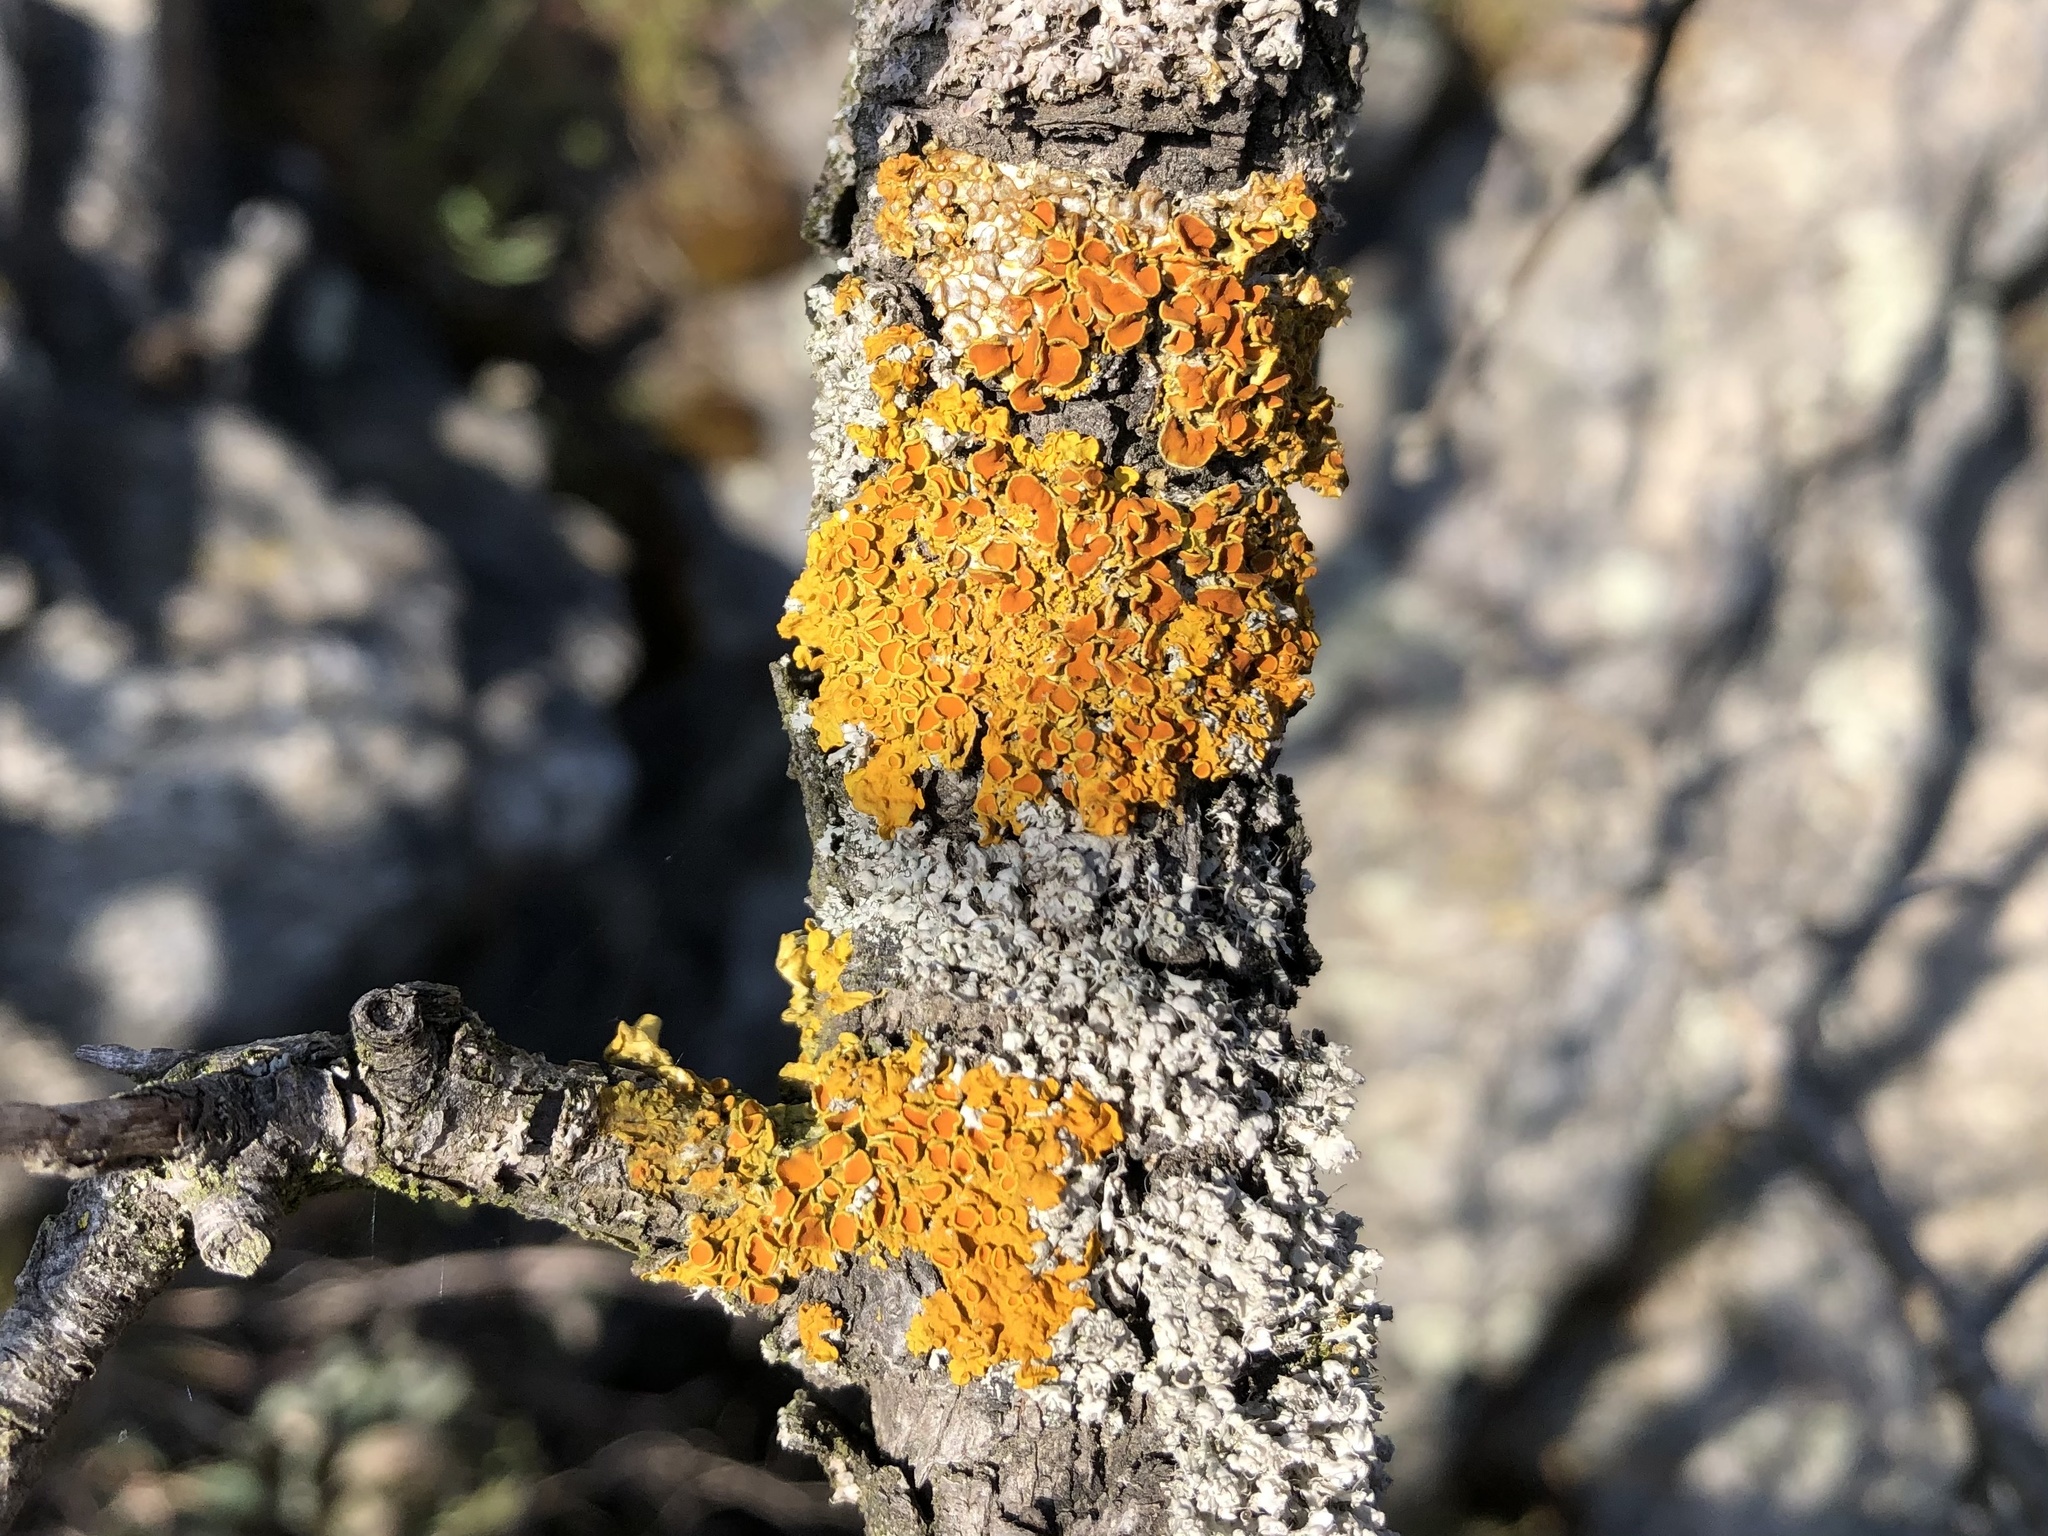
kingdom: Fungi
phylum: Ascomycota
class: Lecanoromycetes
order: Teloschistales
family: Teloschistaceae
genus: Xanthoria
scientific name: Xanthoria parietina
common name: Common orange lichen
